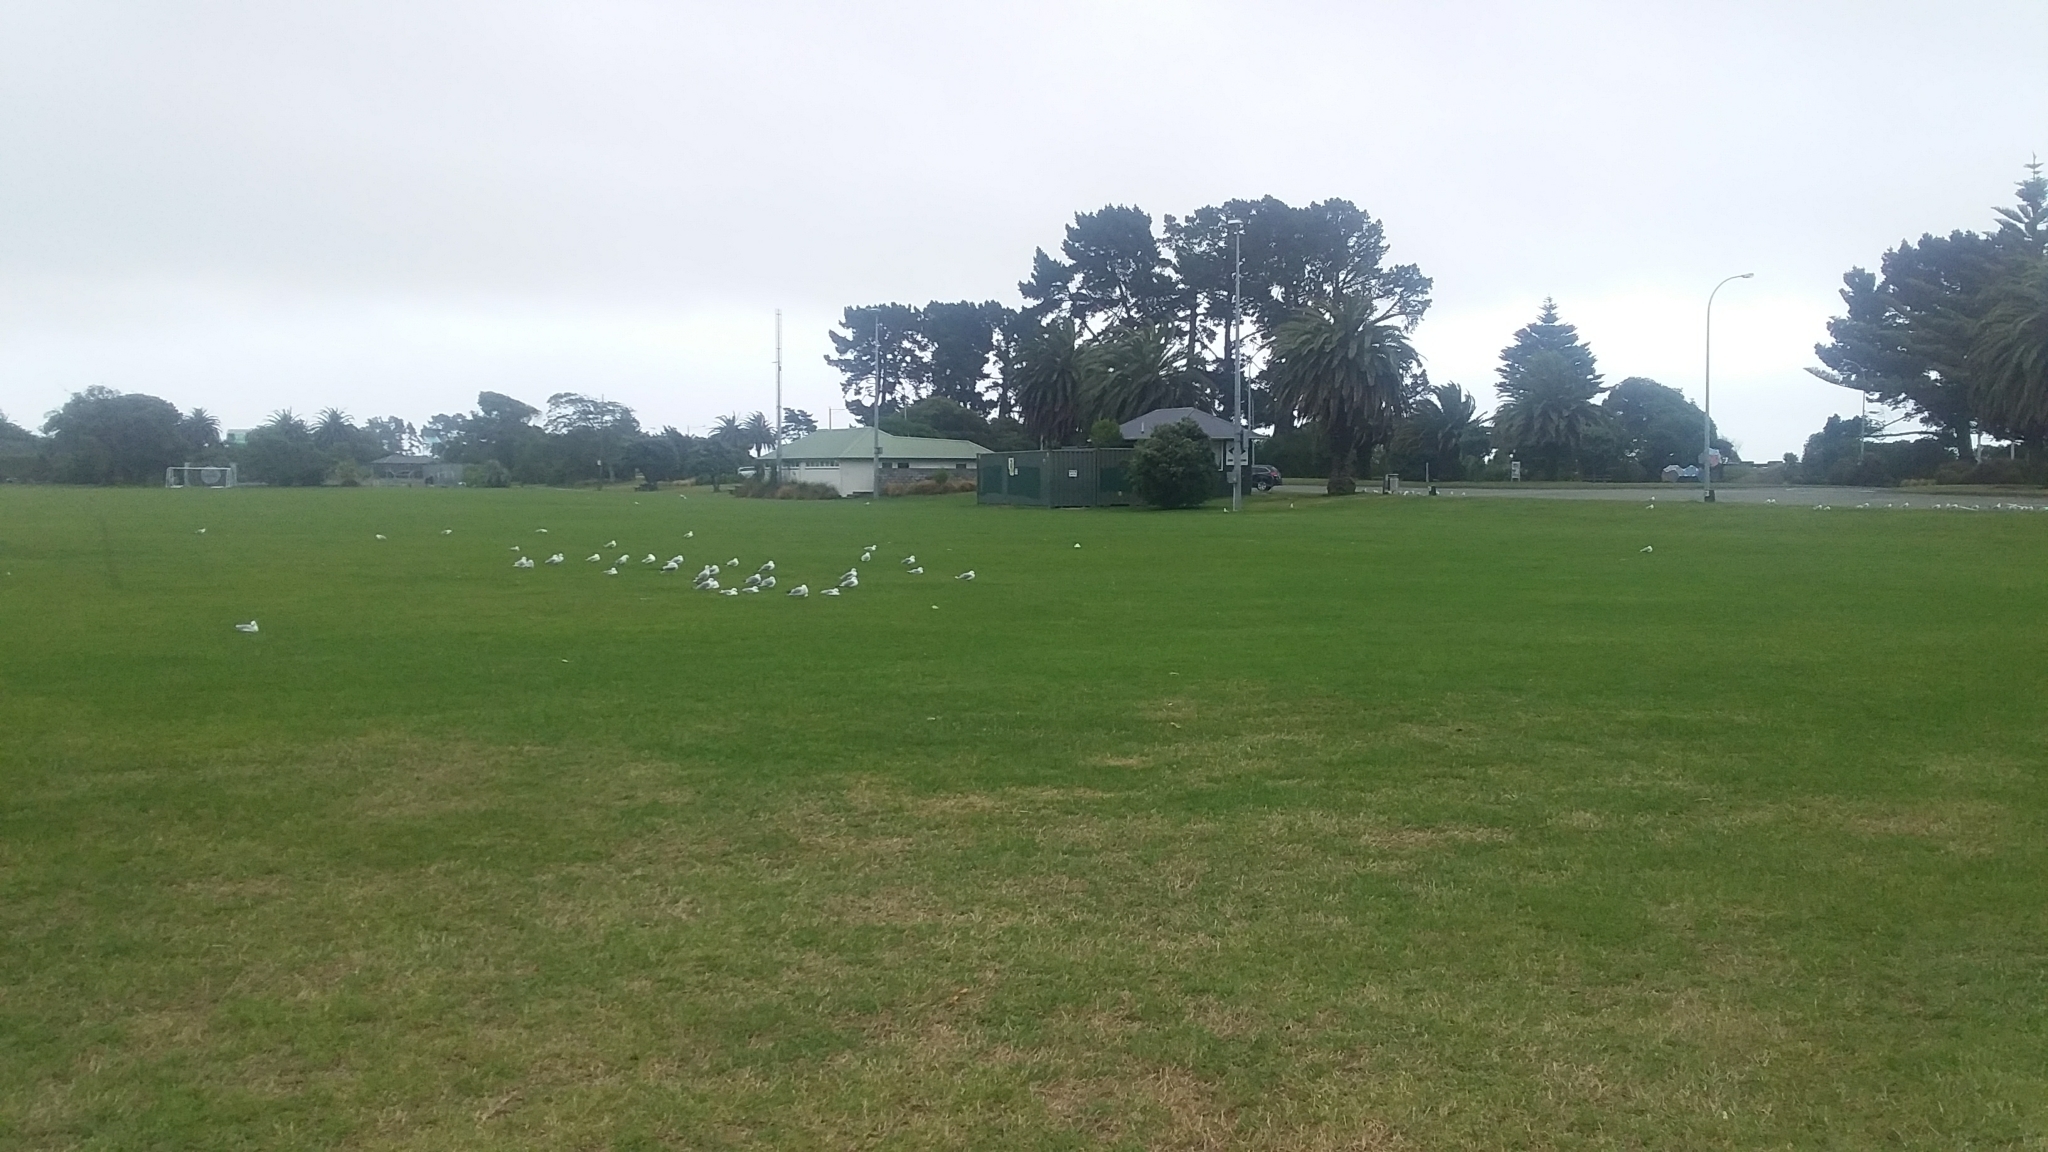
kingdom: Animalia
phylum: Chordata
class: Aves
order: Charadriiformes
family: Laridae
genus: Chroicocephalus
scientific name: Chroicocephalus novaehollandiae
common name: Silver gull
